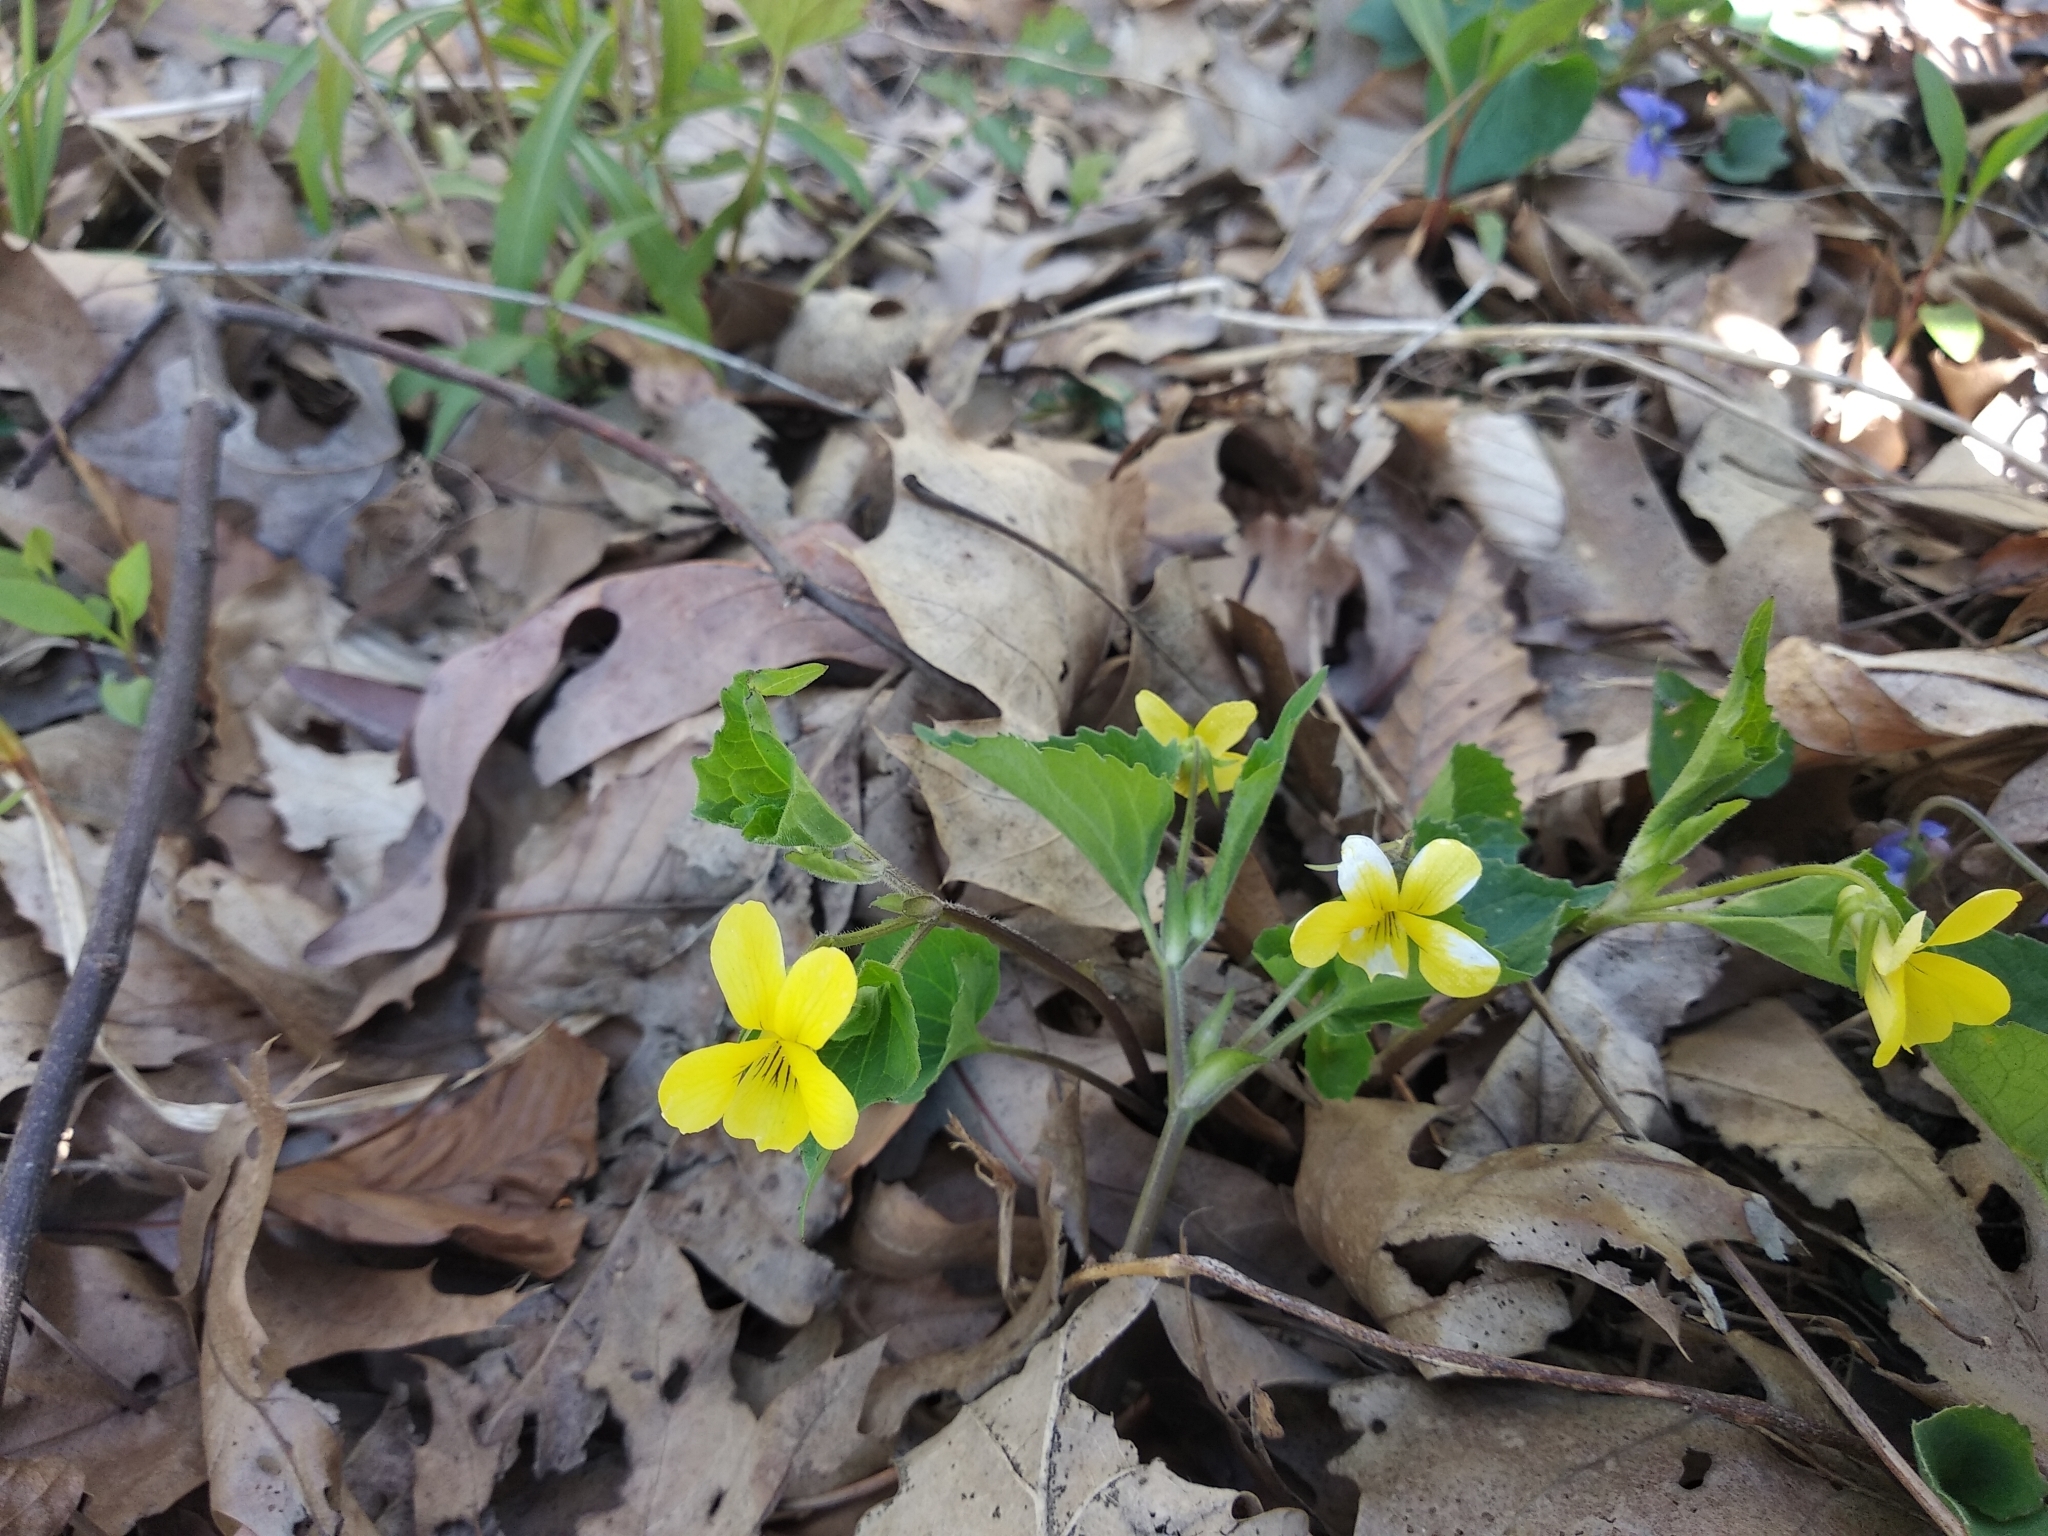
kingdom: Plantae
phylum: Tracheophyta
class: Magnoliopsida
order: Malpighiales
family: Violaceae
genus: Viola
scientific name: Viola eriocarpa
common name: Smooth yellow violet
